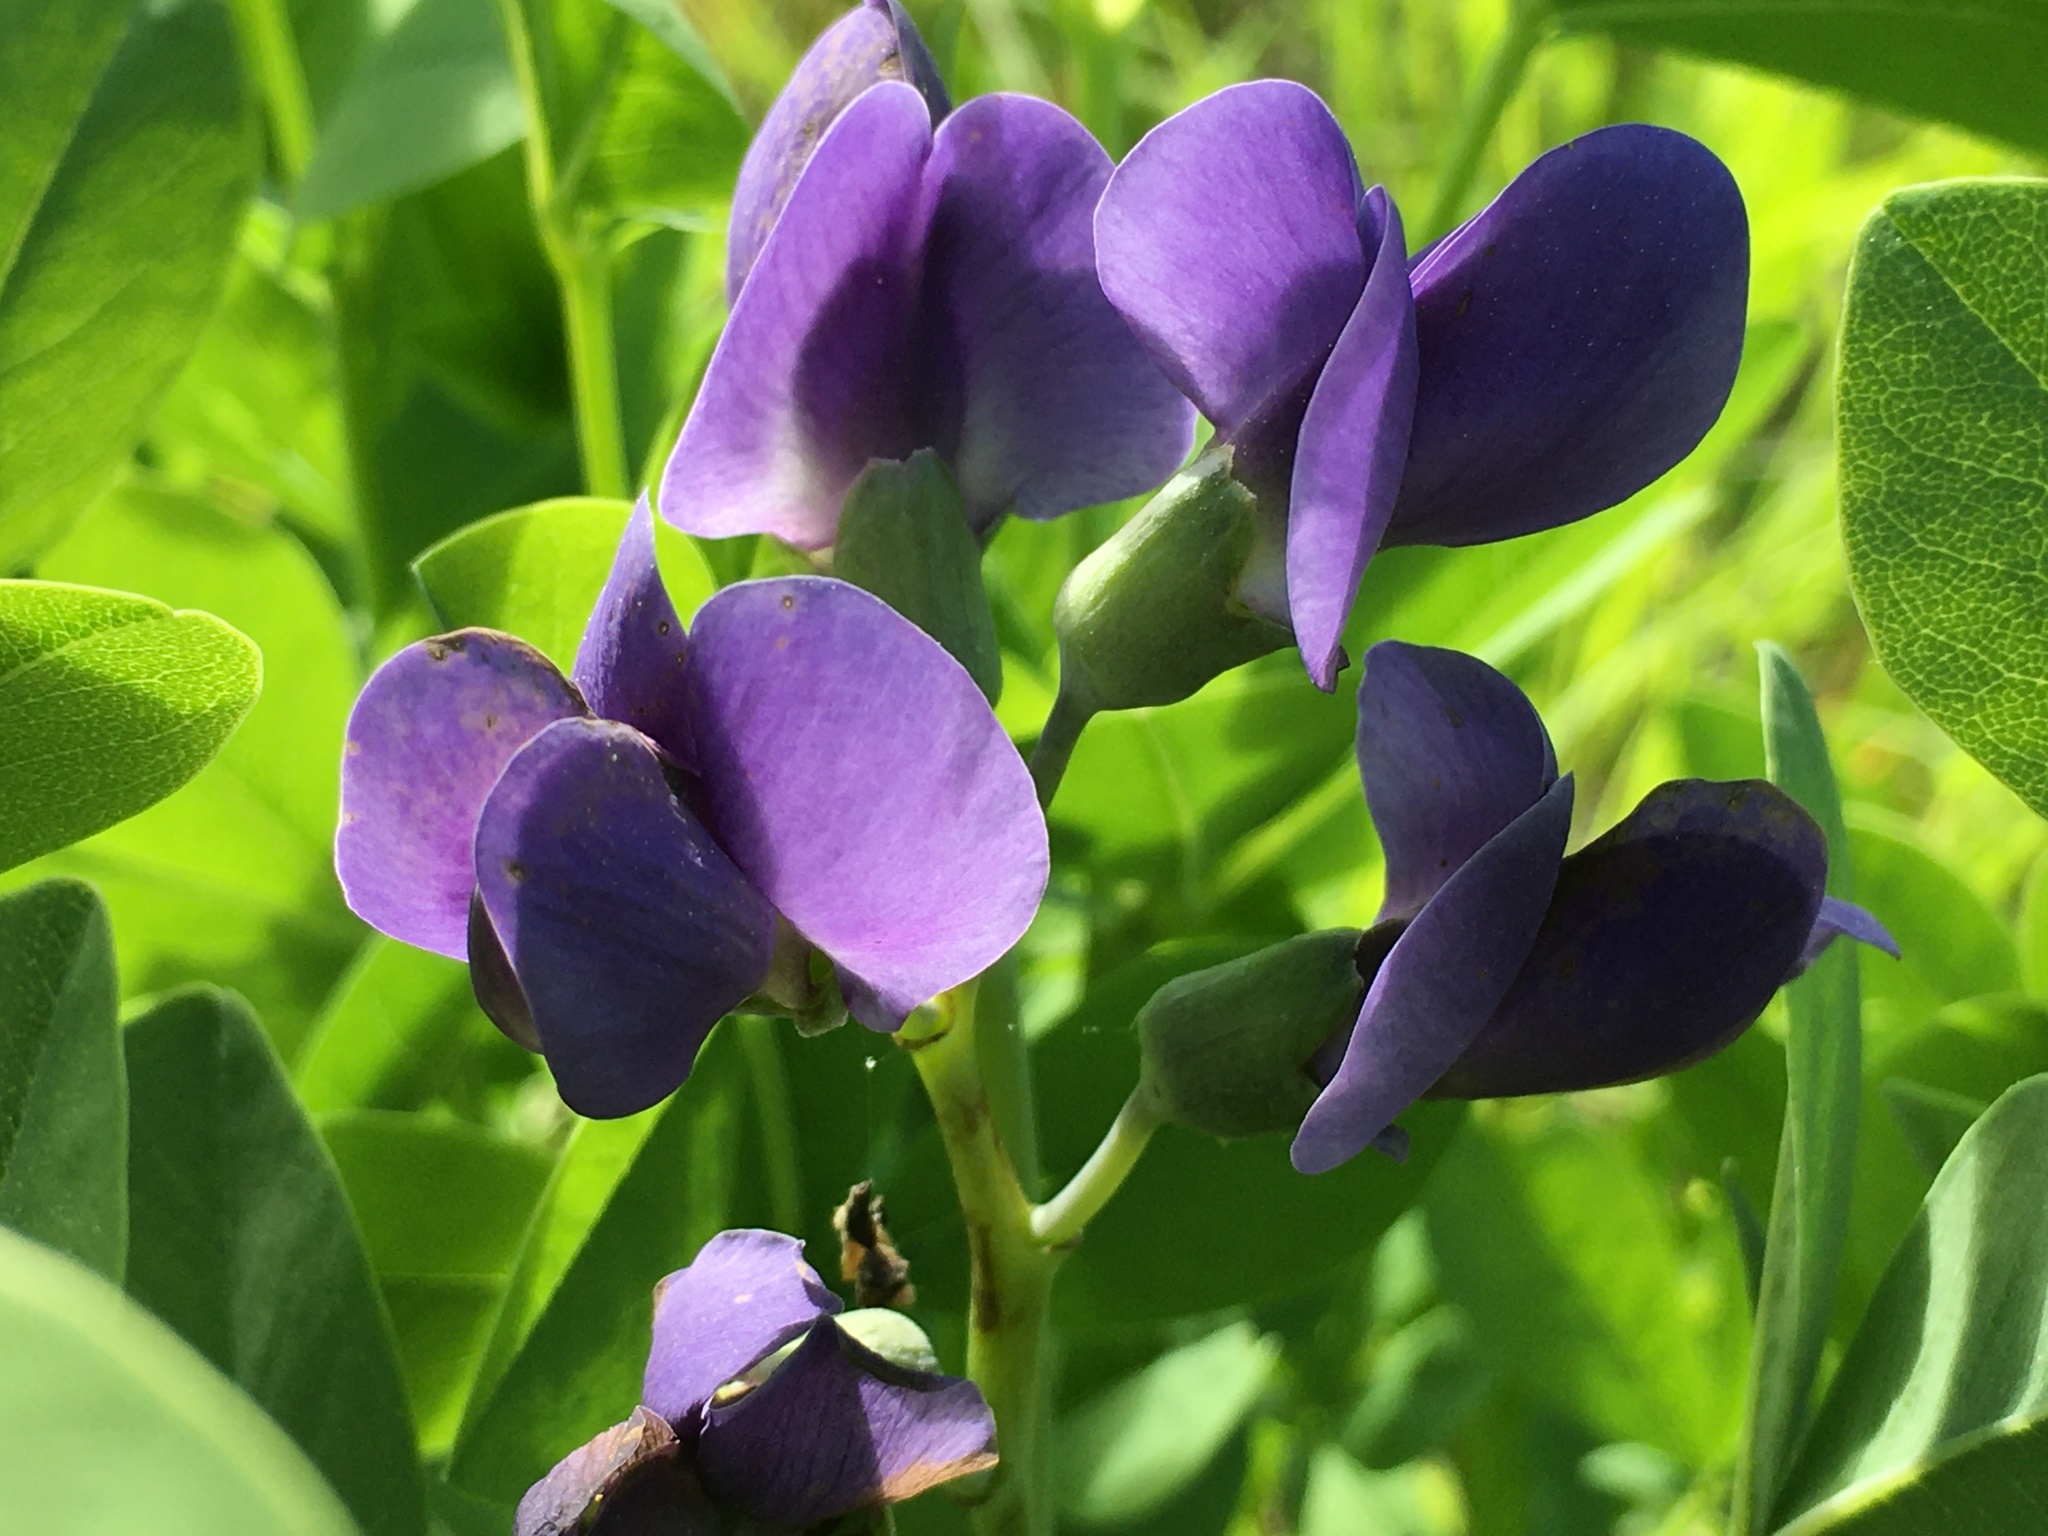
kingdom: Plantae
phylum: Tracheophyta
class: Magnoliopsida
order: Fabales
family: Fabaceae
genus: Baptisia
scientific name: Baptisia australis
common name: Blue false indigo
